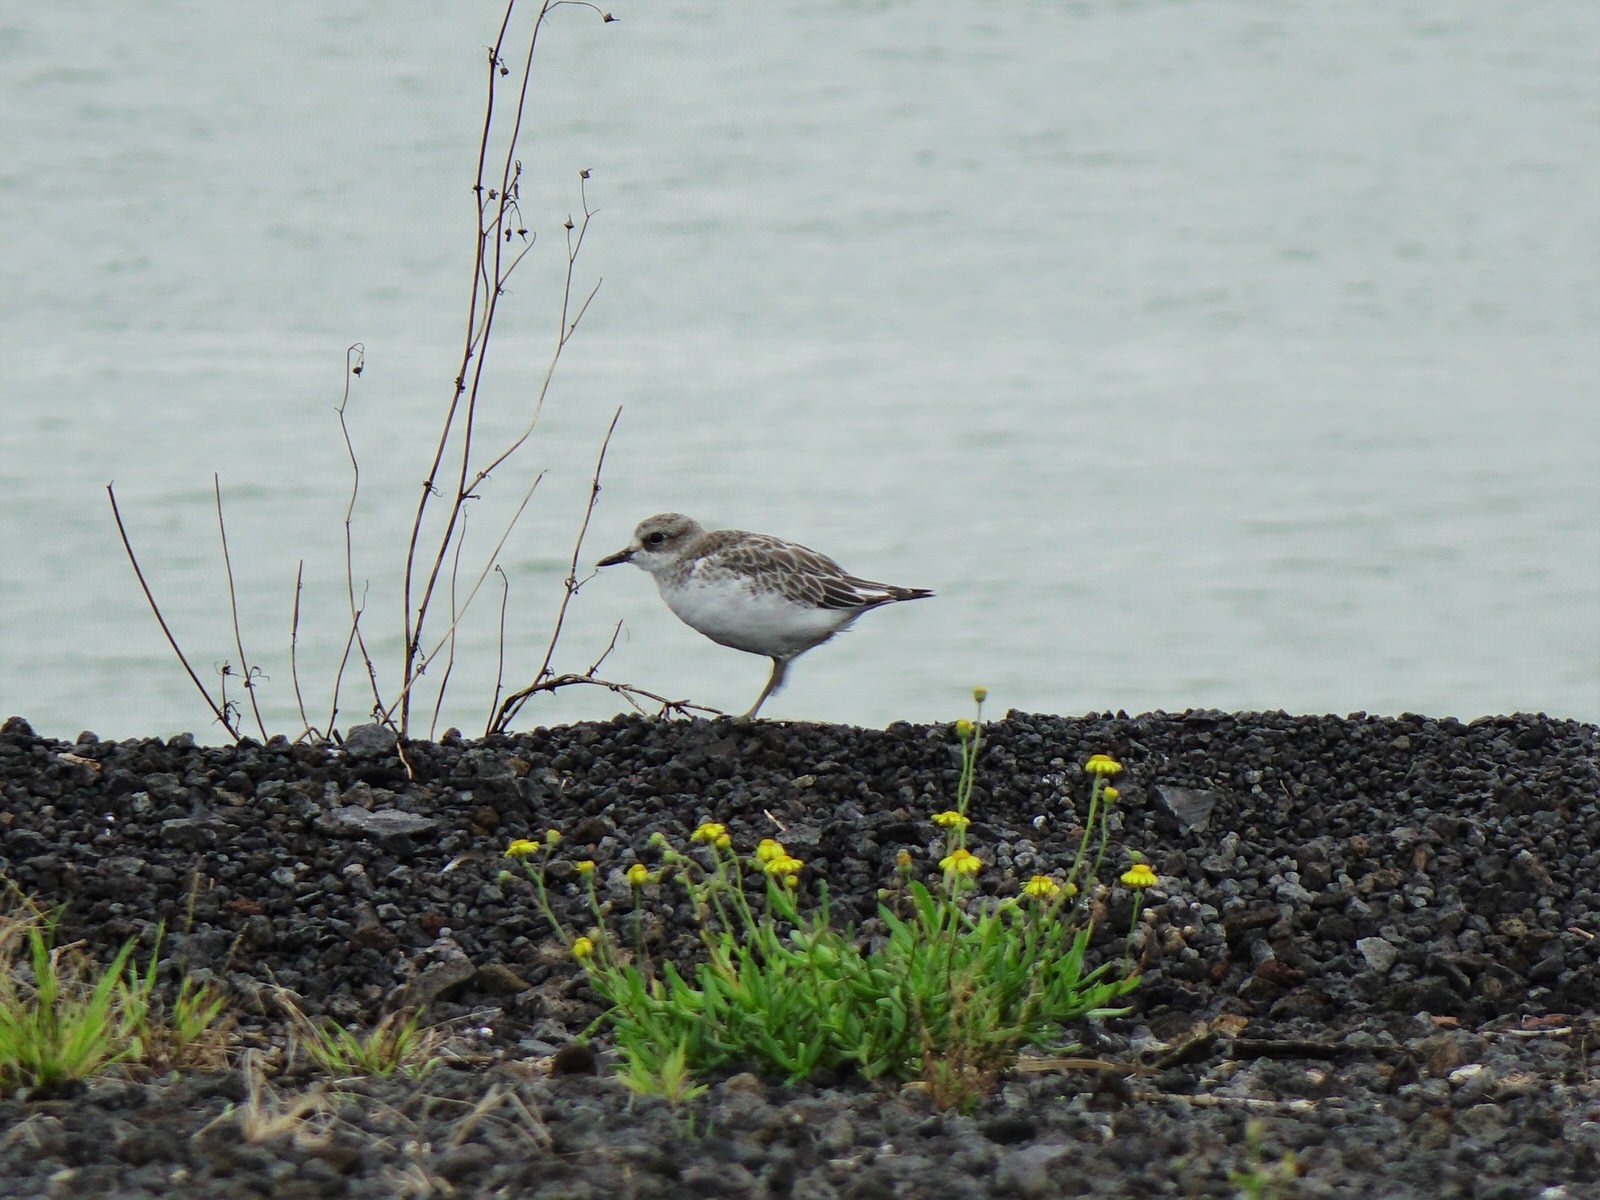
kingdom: Animalia
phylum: Chordata
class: Aves
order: Charadriiformes
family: Charadriidae
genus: Anarhynchus
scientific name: Anarhynchus
